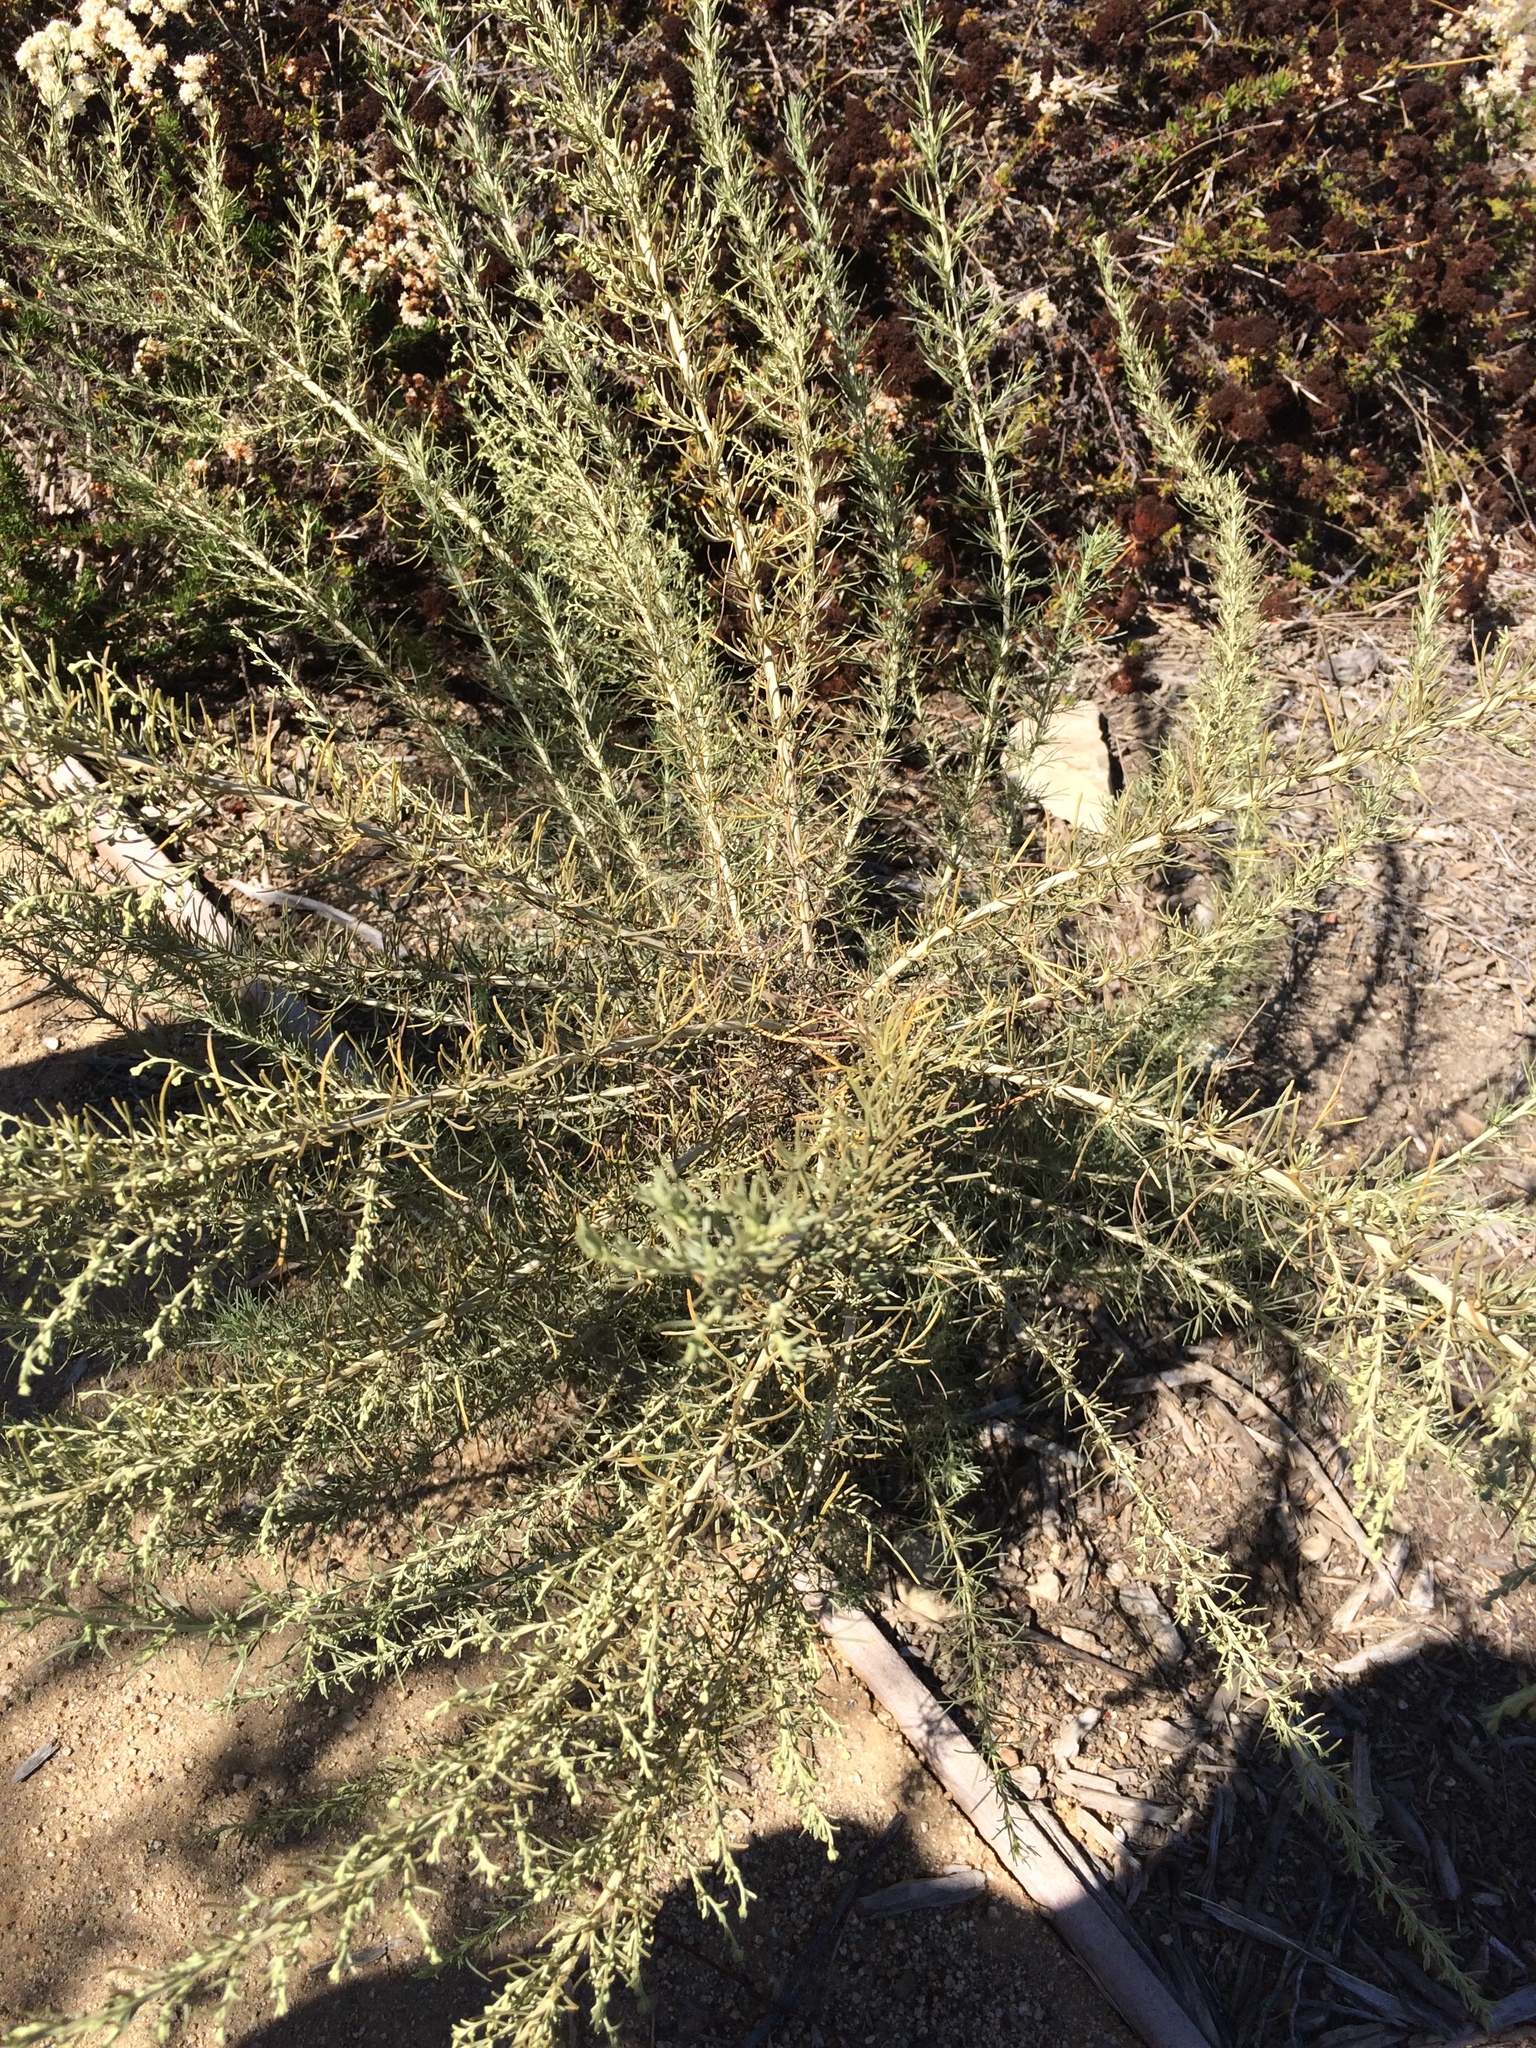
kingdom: Plantae
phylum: Tracheophyta
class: Magnoliopsida
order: Asterales
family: Asteraceae
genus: Artemisia
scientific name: Artemisia californica
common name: California sagebrush
